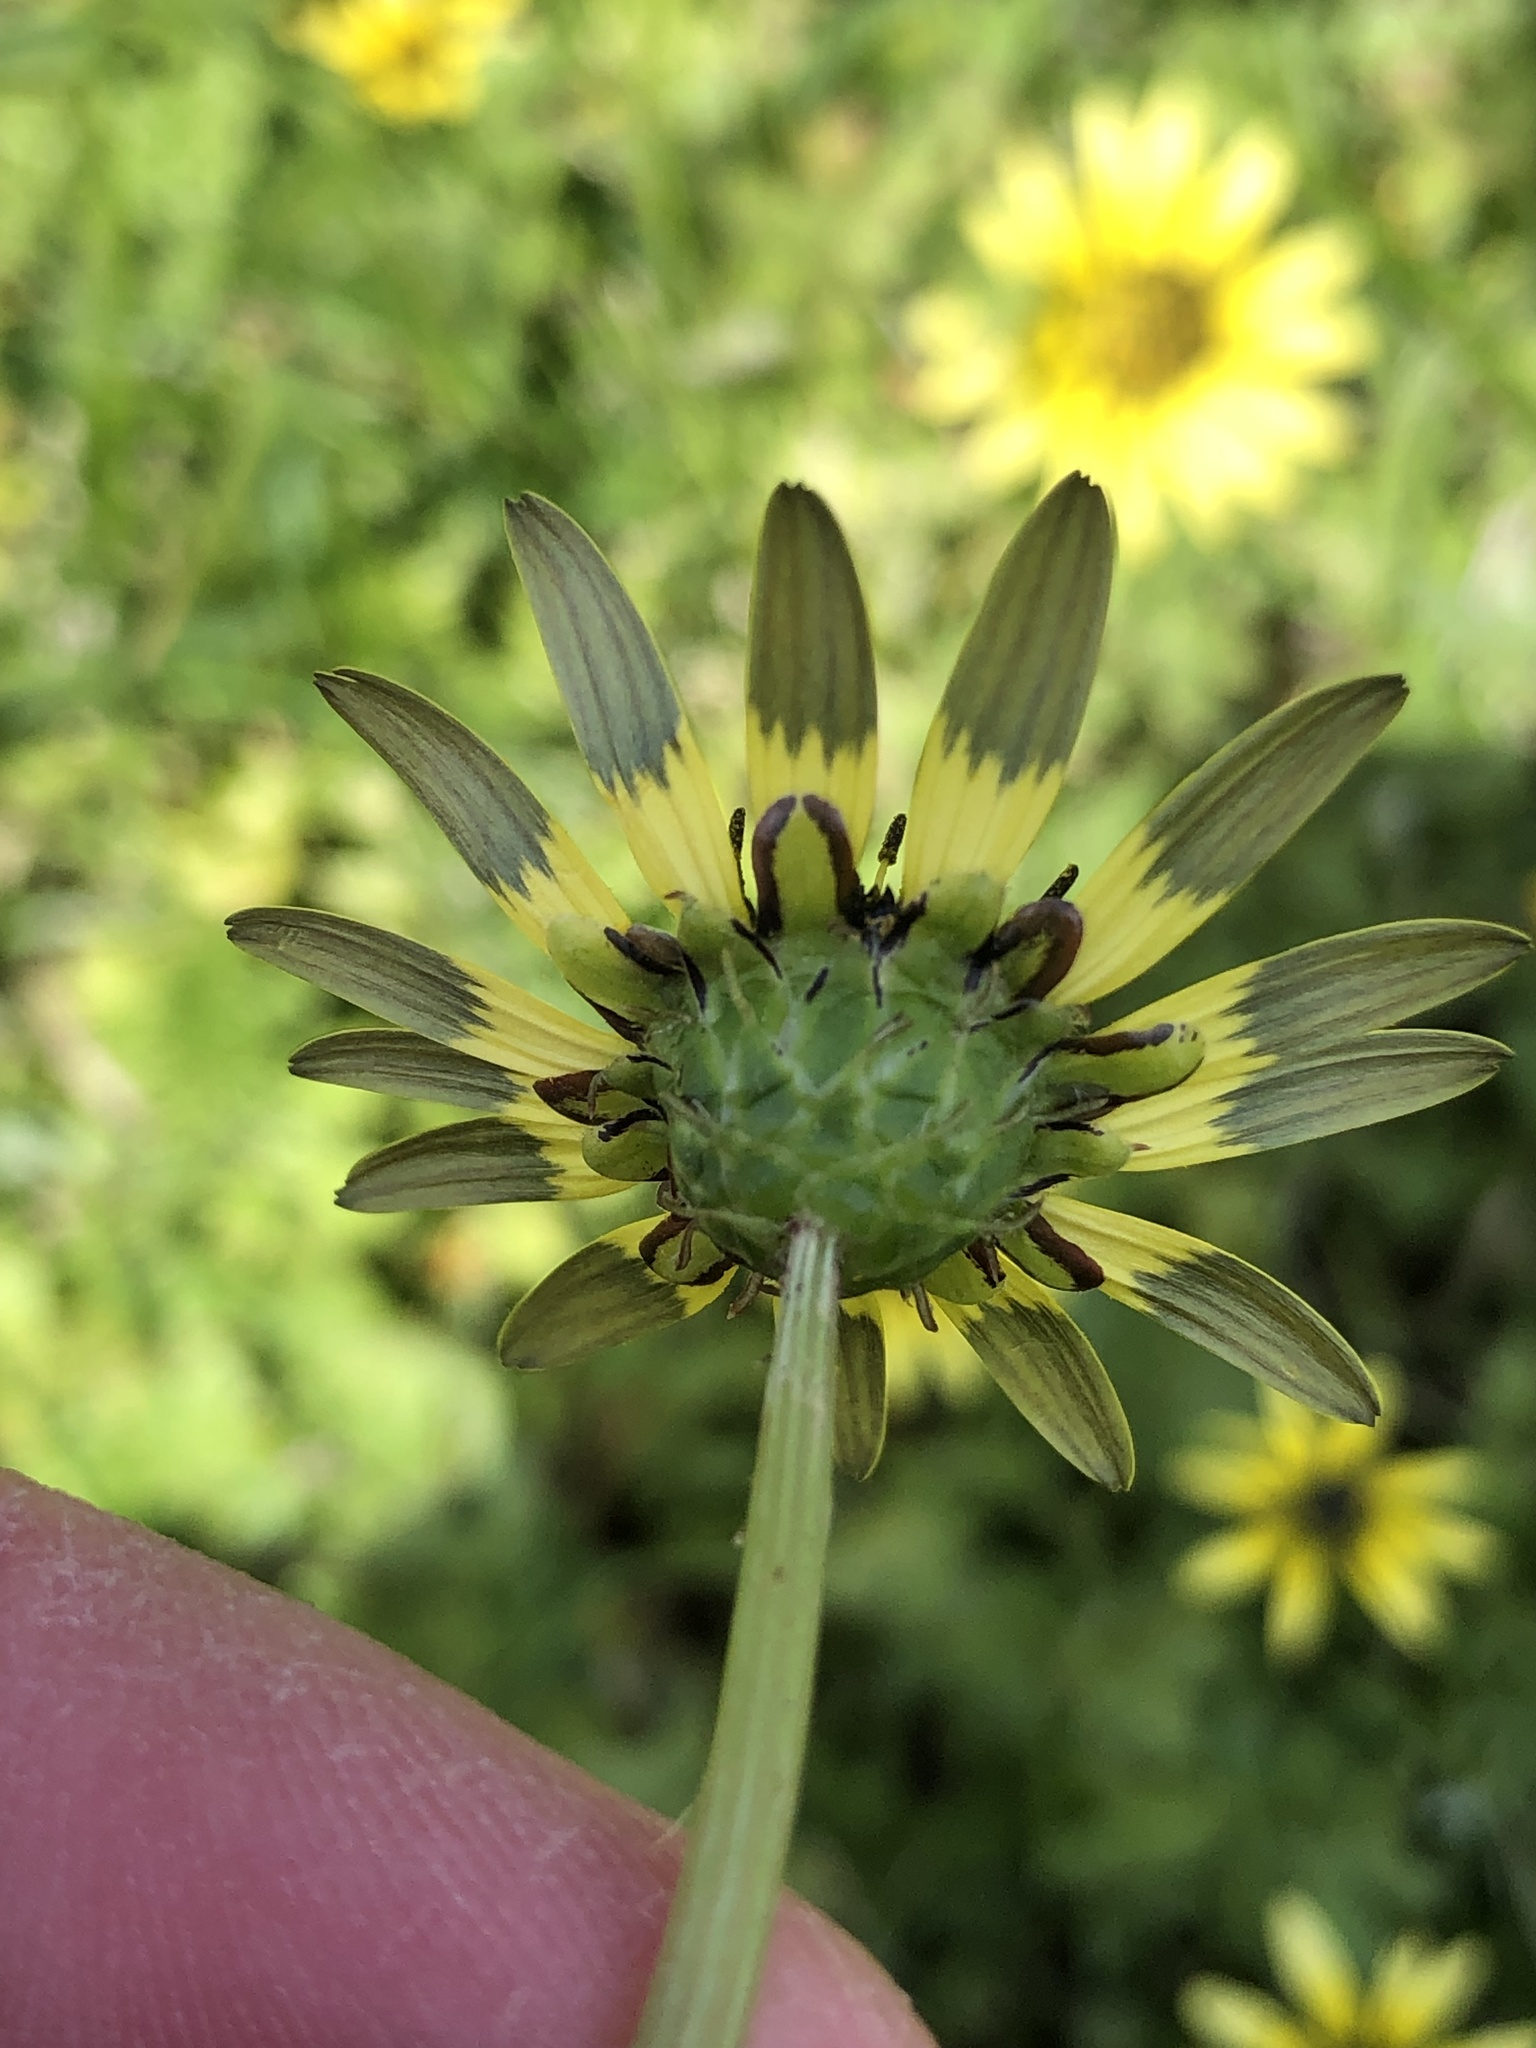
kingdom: Plantae
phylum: Tracheophyta
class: Magnoliopsida
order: Asterales
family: Asteraceae
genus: Arctotheca
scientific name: Arctotheca calendula
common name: Capeweed
